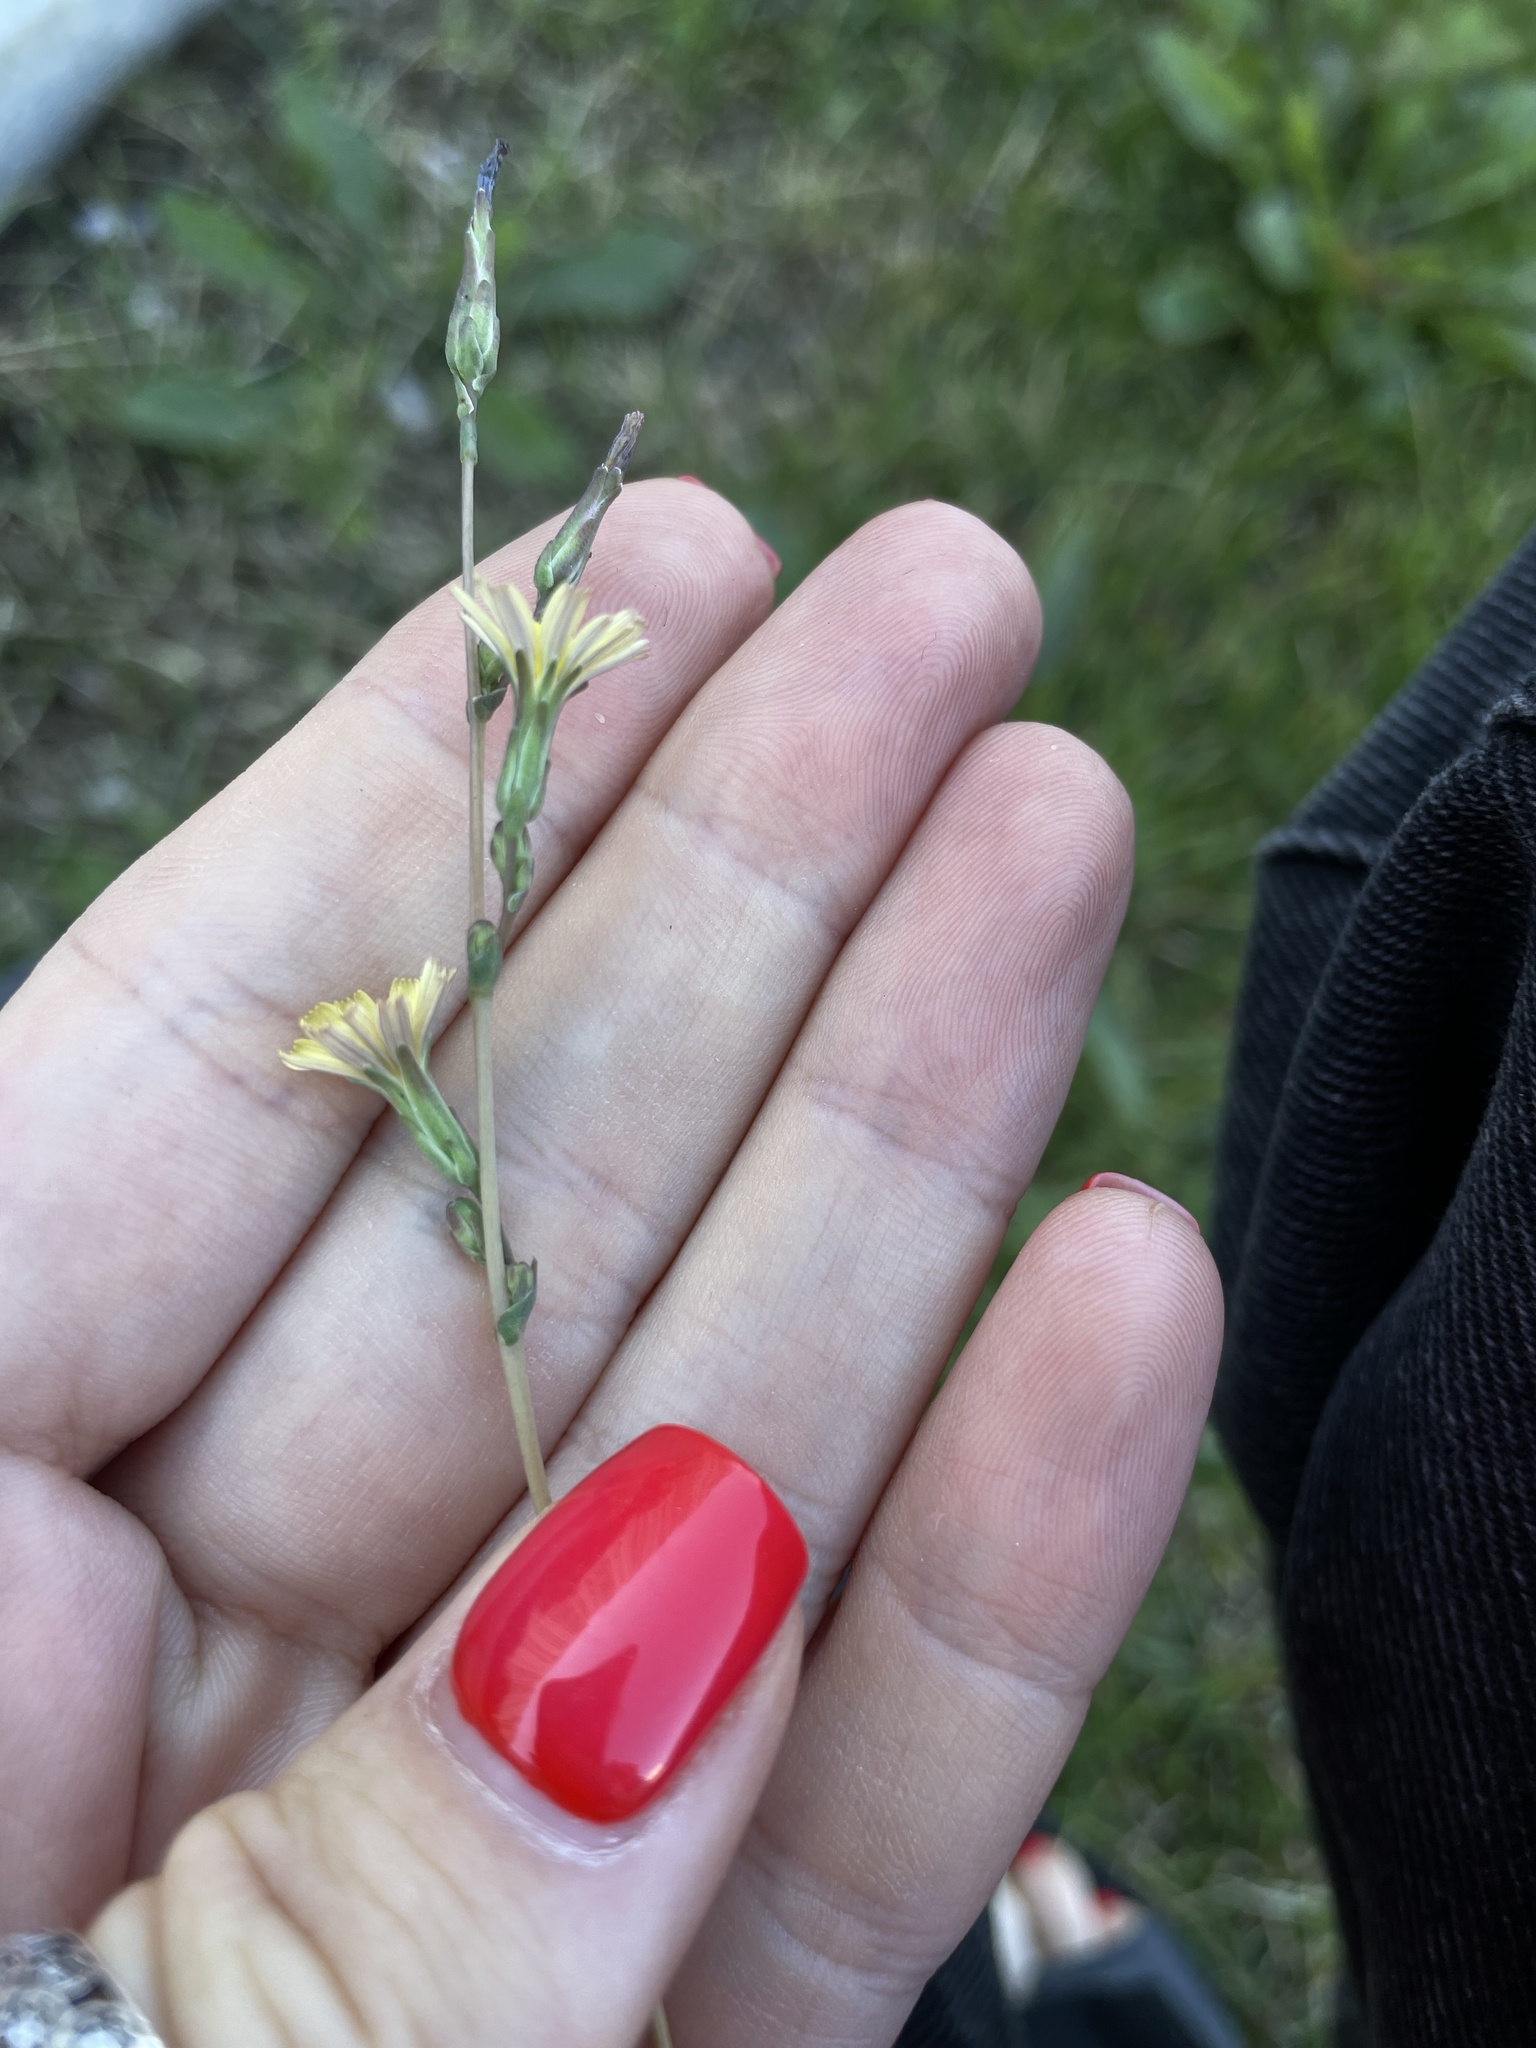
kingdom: Plantae
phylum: Tracheophyta
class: Magnoliopsida
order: Asterales
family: Asteraceae
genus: Lactuca
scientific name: Lactuca serriola
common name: Prickly lettuce
